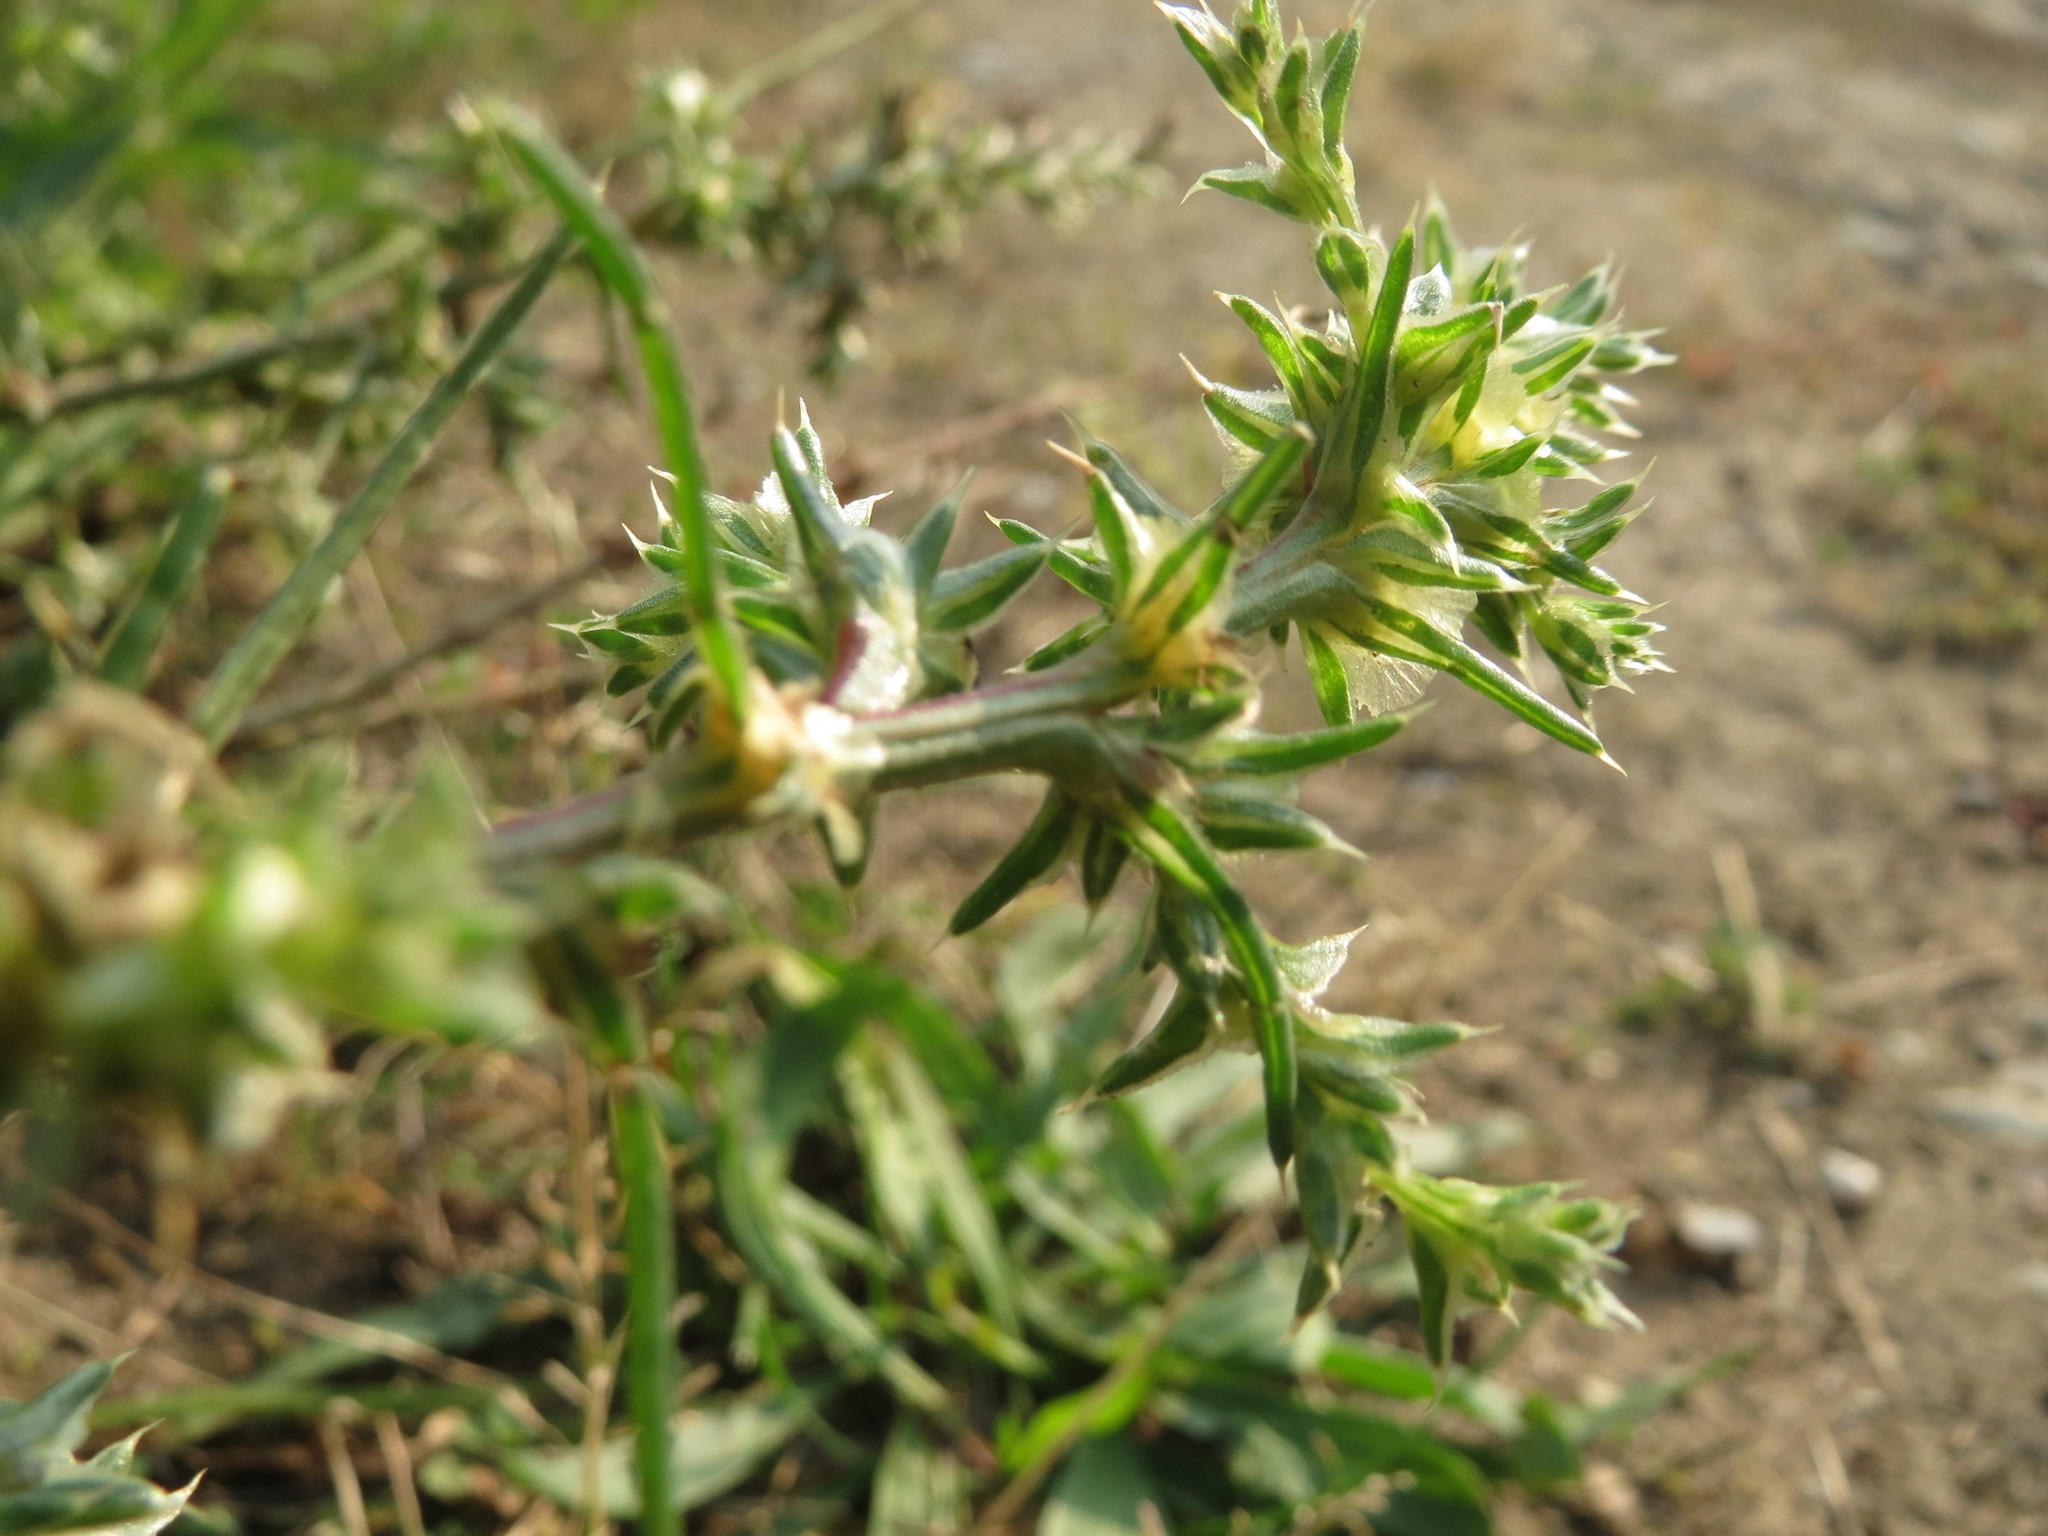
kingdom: Plantae
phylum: Tracheophyta
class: Magnoliopsida
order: Caryophyllales
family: Amaranthaceae
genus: Salsola
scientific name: Salsola tragus
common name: Prickly russian thistle
